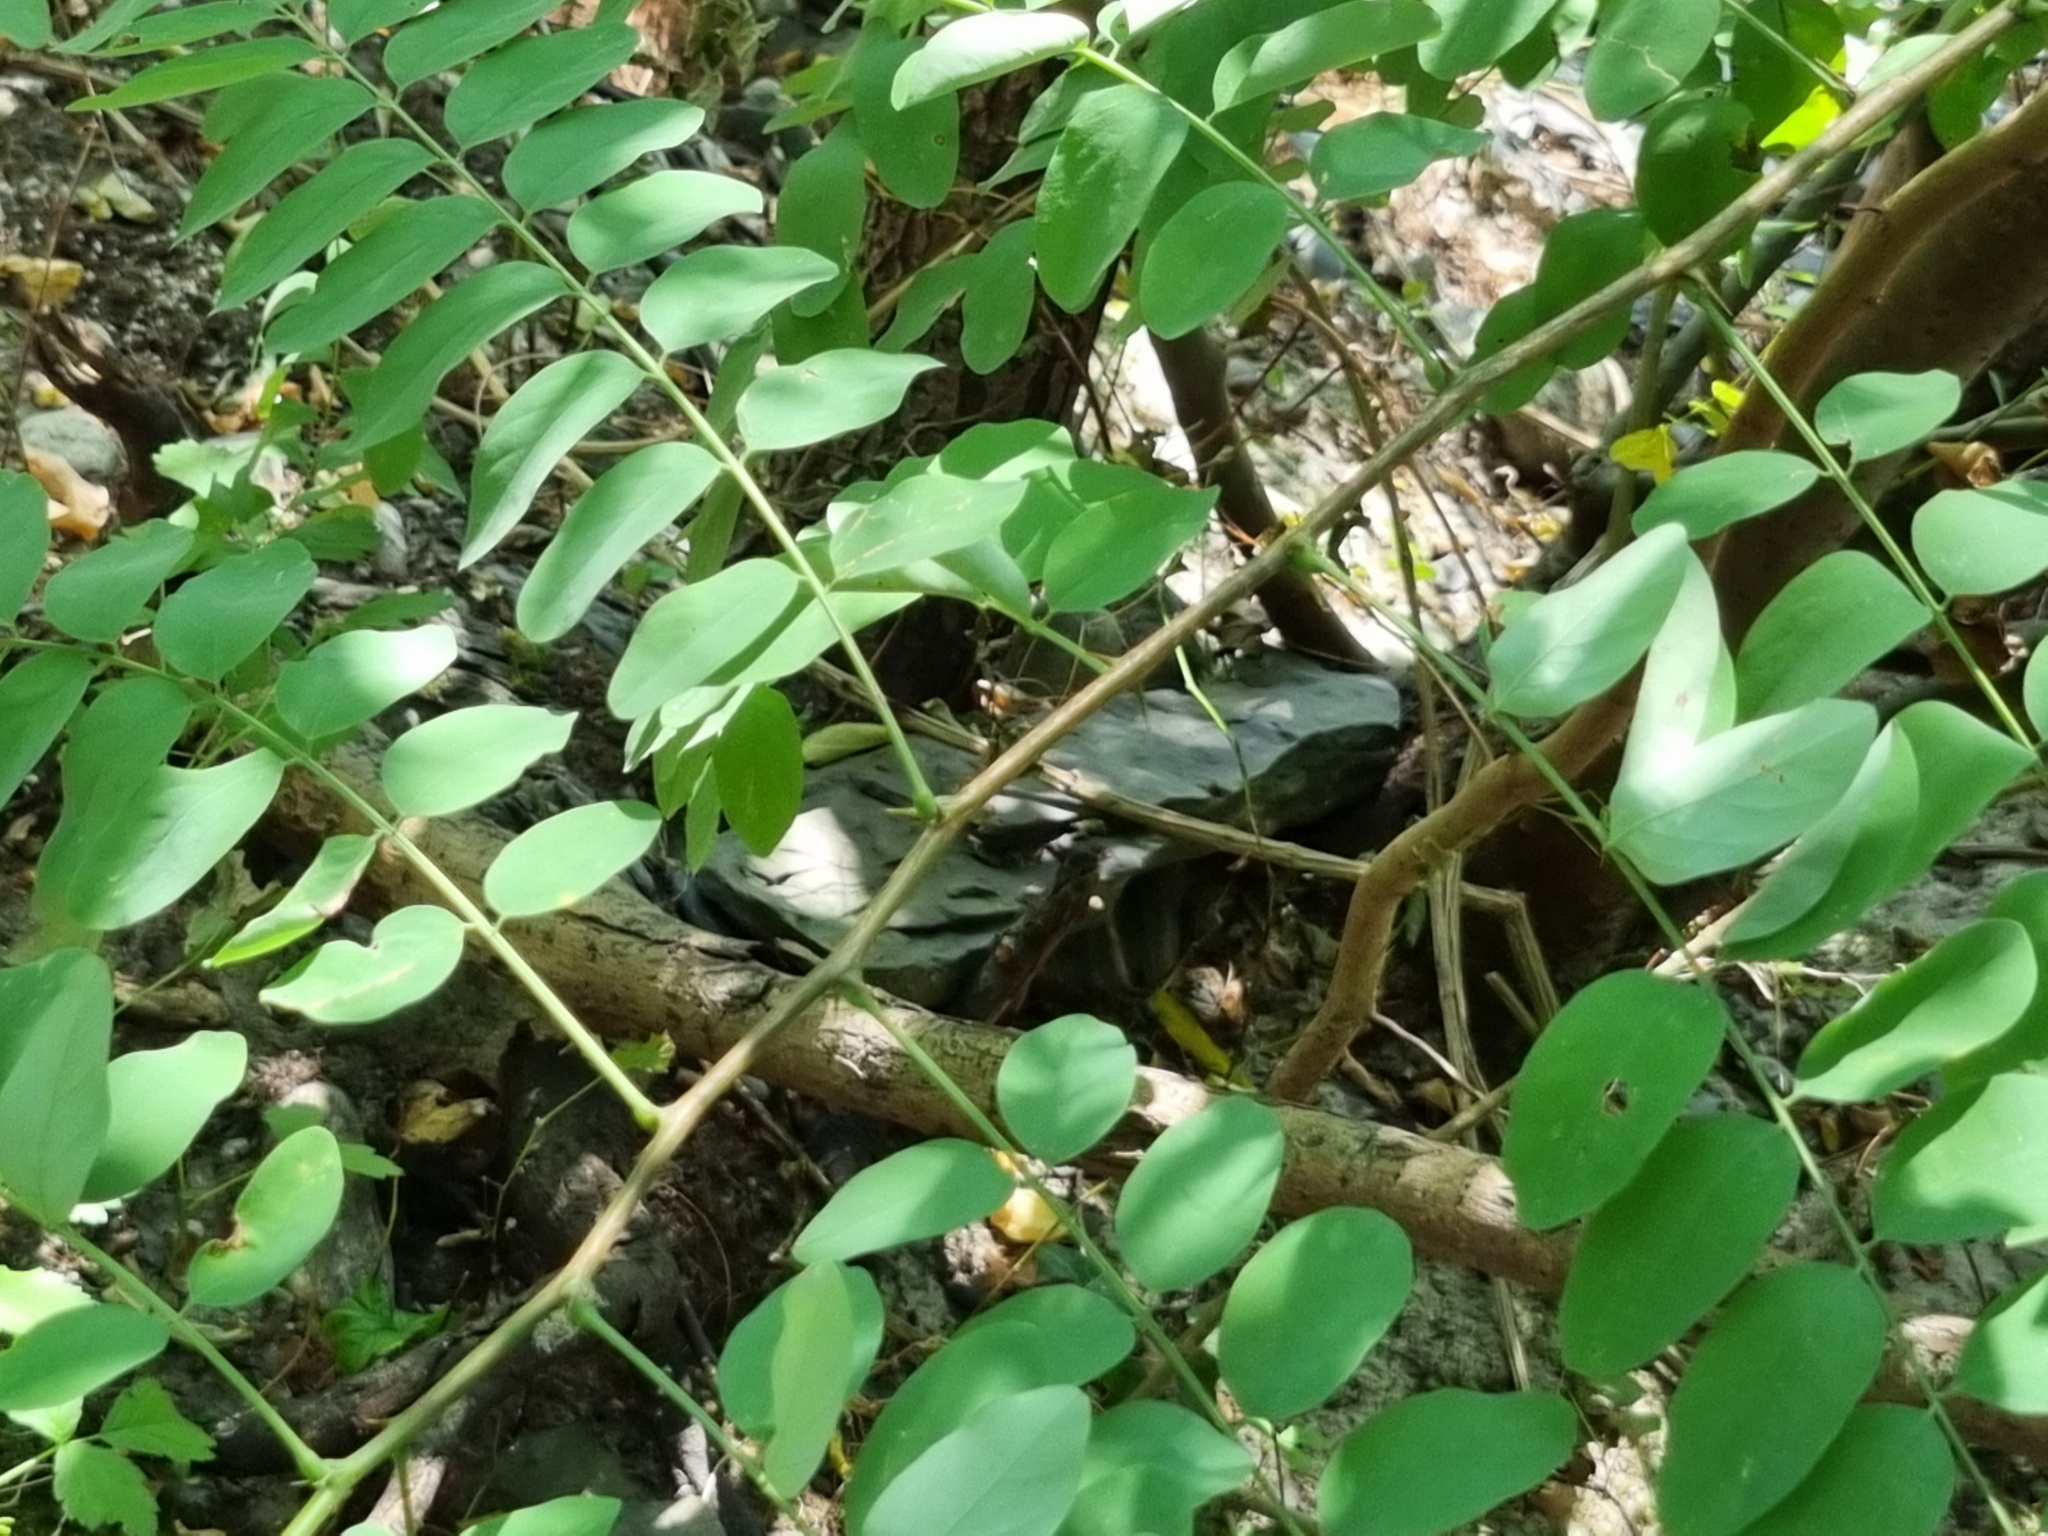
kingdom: Plantae
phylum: Tracheophyta
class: Magnoliopsida
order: Fabales
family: Fabaceae
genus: Robinia
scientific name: Robinia pseudoacacia
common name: Black locust
